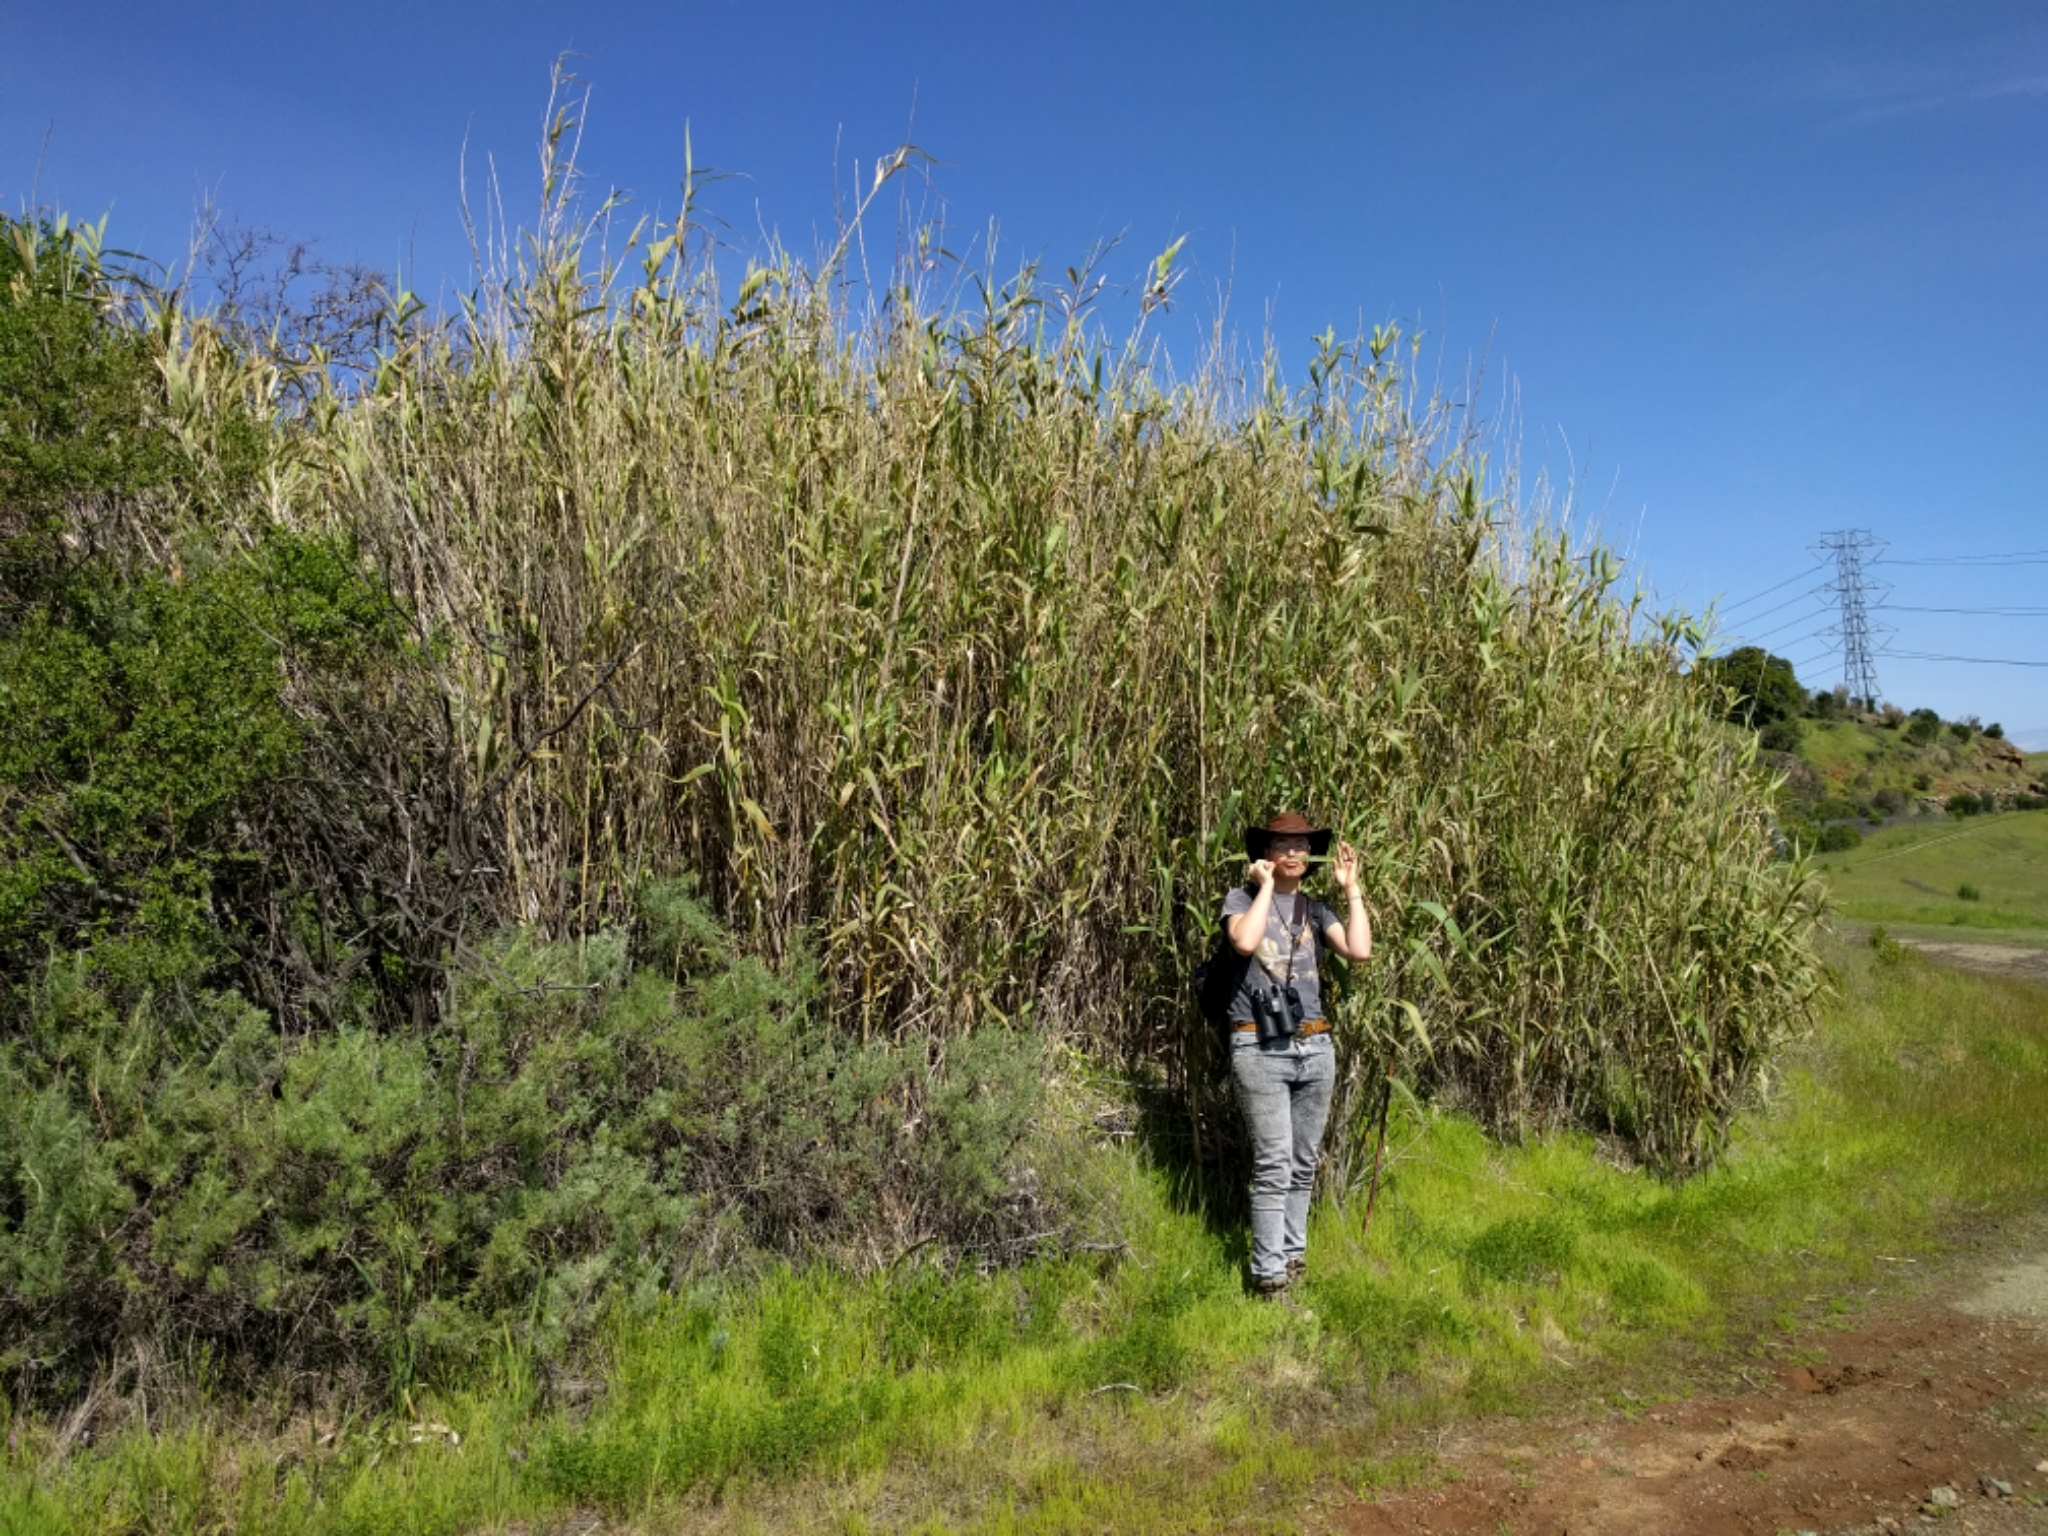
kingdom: Plantae
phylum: Tracheophyta
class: Liliopsida
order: Poales
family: Poaceae
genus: Arundo
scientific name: Arundo donax
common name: Giant reed
